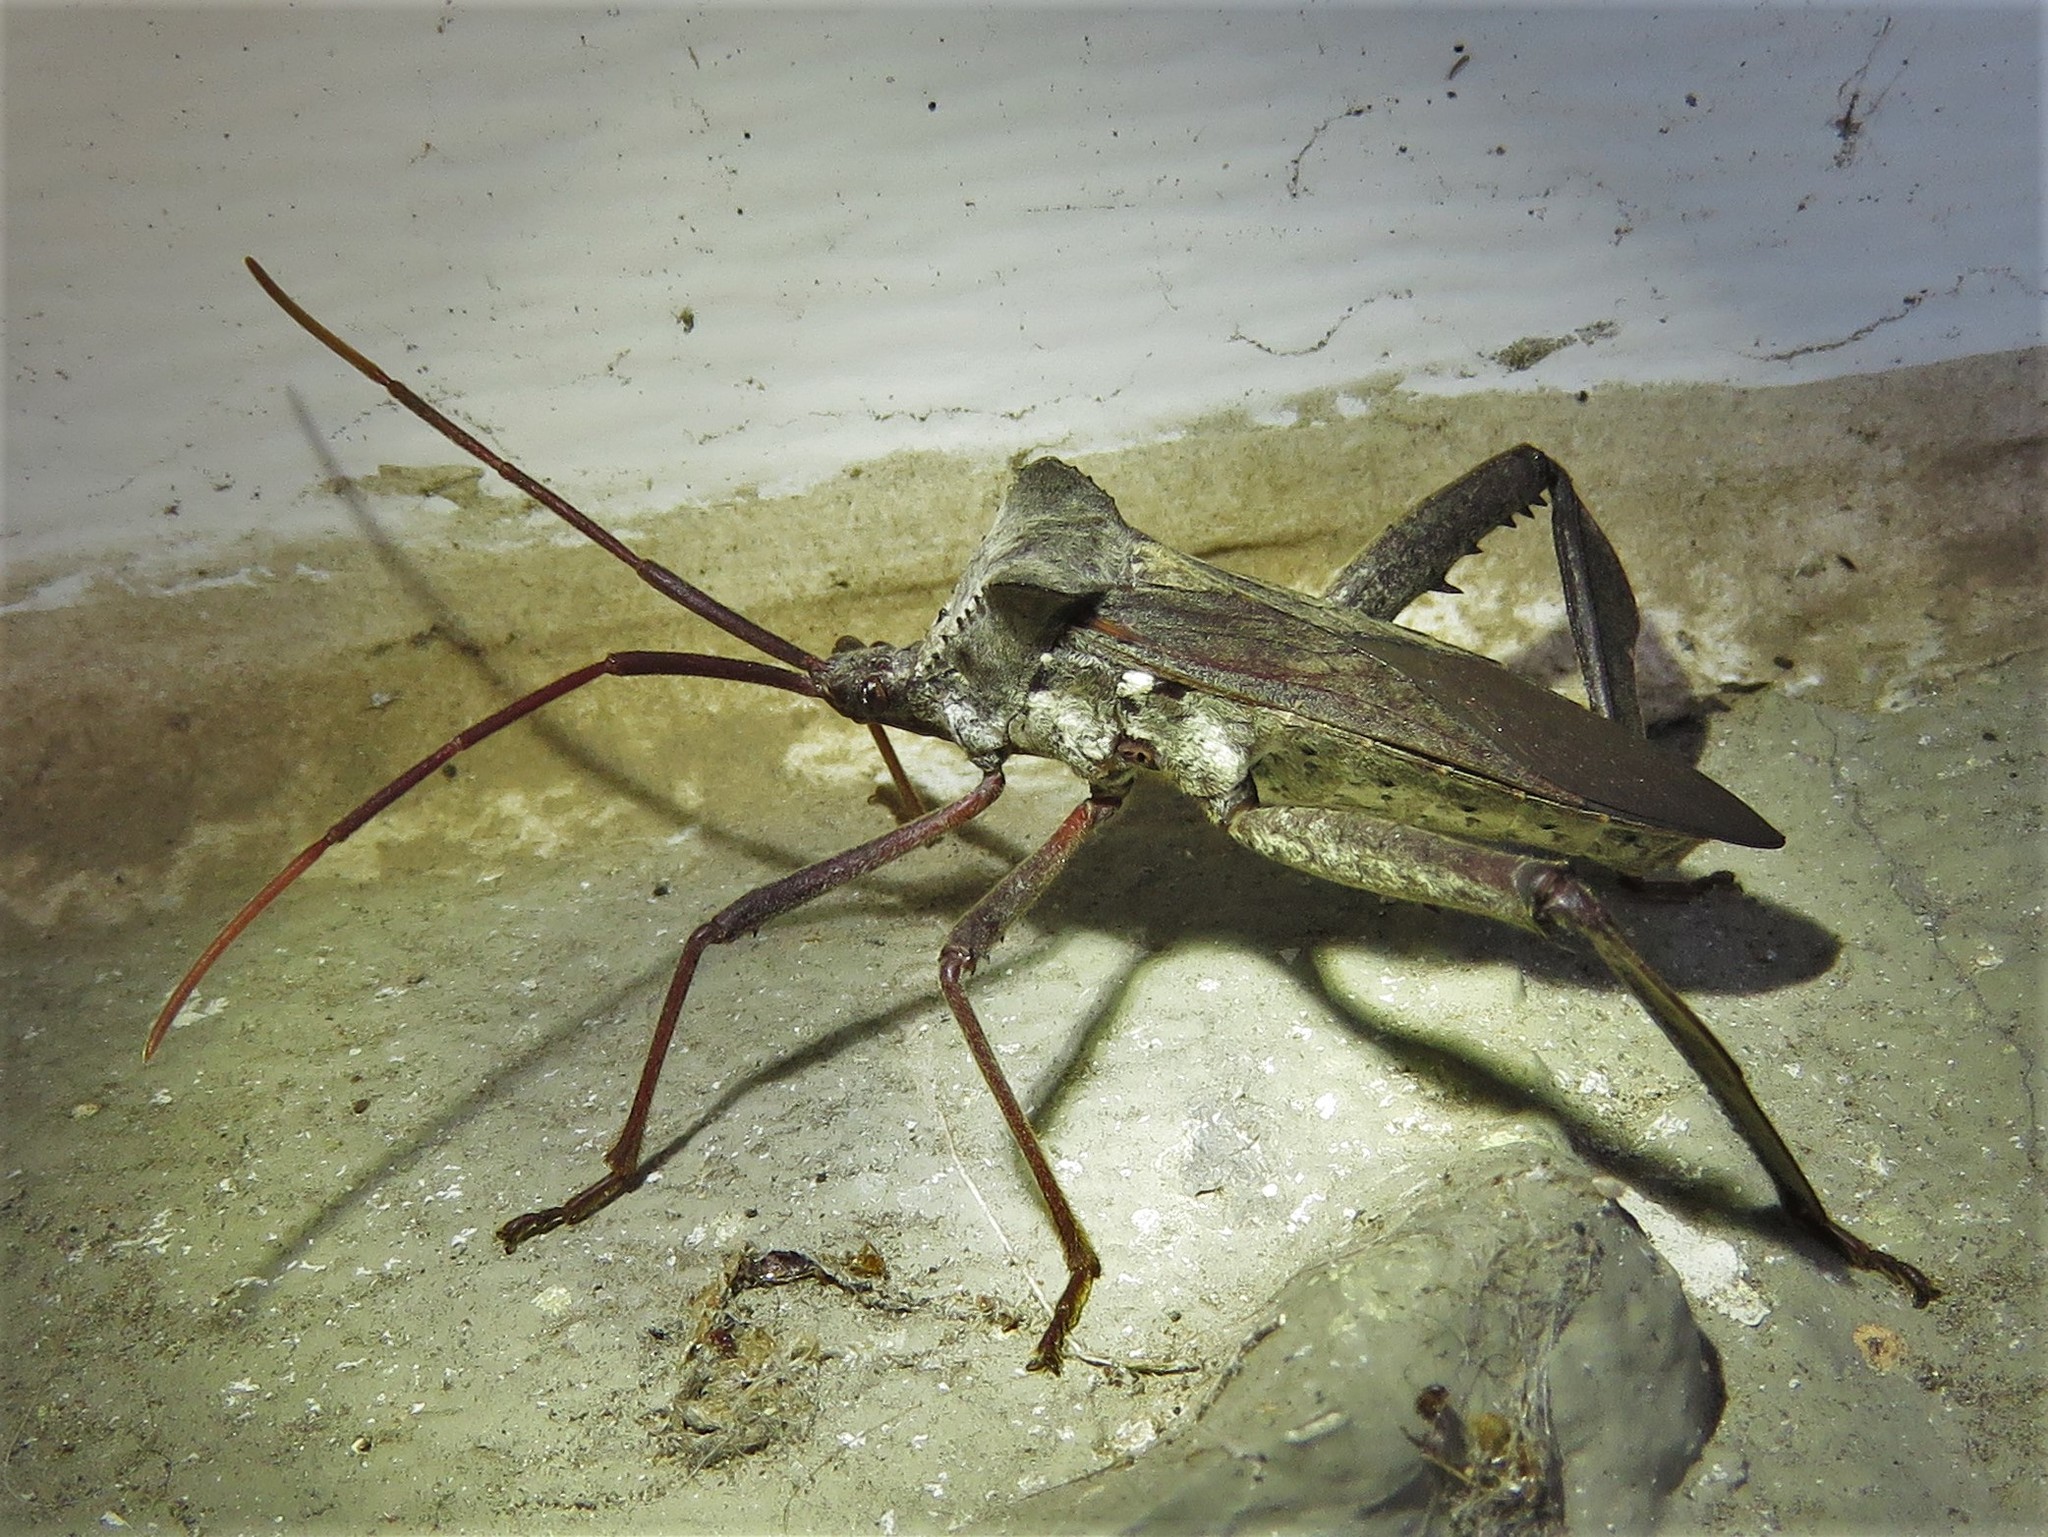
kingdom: Animalia
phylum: Arthropoda
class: Insecta
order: Hemiptera
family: Coreidae
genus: Acanthocephala
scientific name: Acanthocephala declivis
